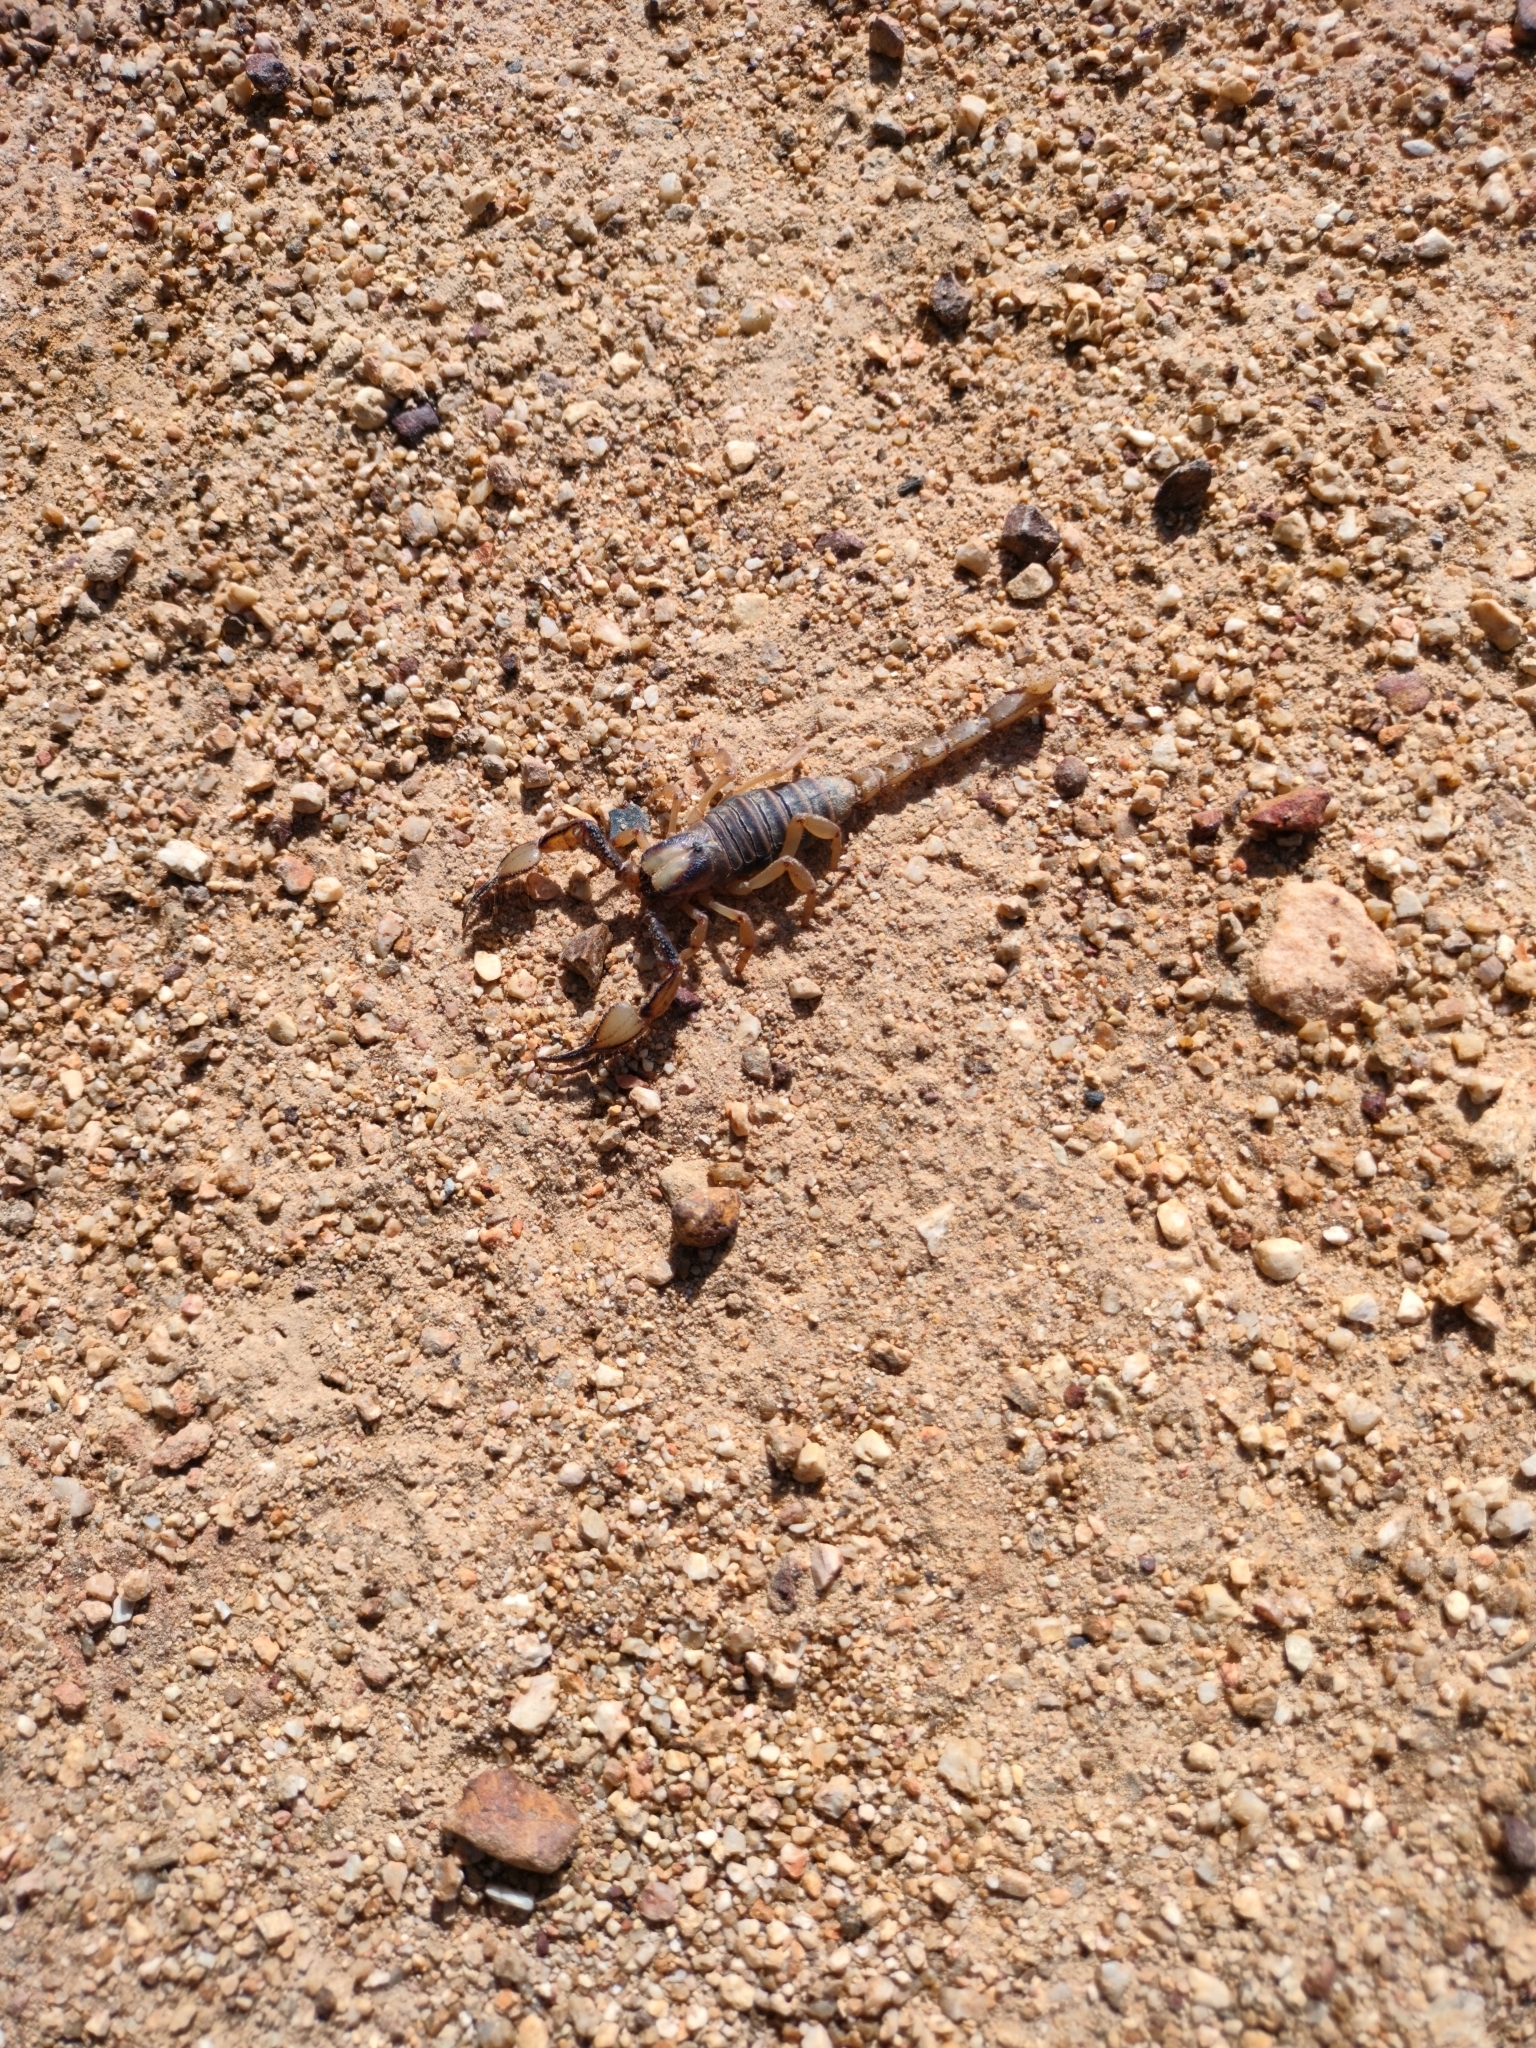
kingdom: Animalia
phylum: Arthropoda
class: Arachnida
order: Scorpiones
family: Scorpionidae
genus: Opistophthalmus
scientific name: Opistophthalmus capensis
